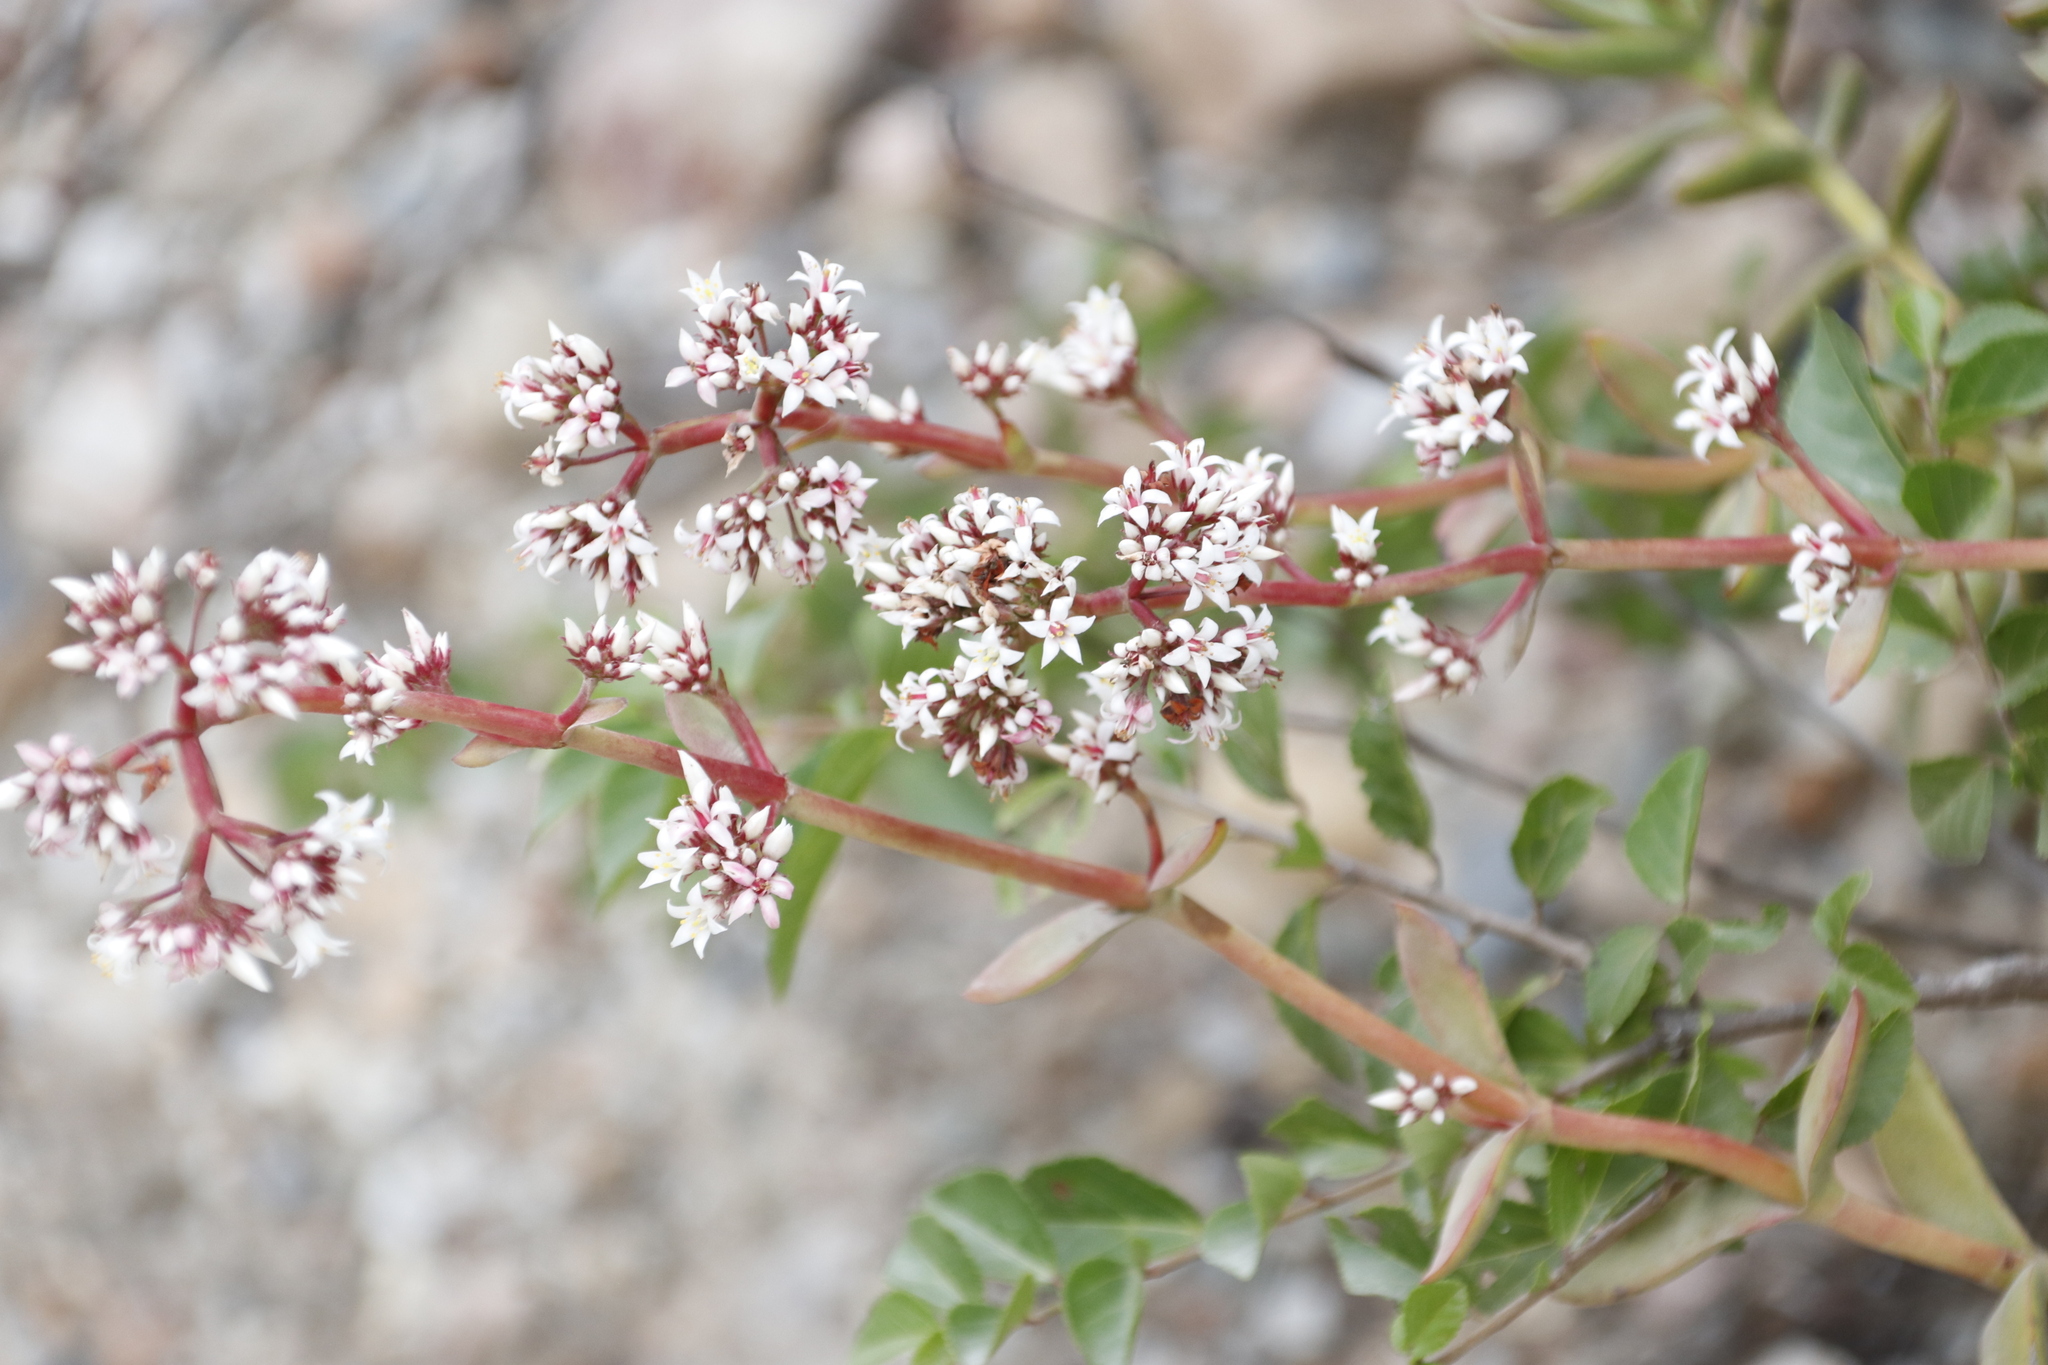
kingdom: Plantae
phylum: Tracheophyta
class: Magnoliopsida
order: Saxifragales
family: Crassulaceae
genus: Crassula
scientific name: Crassula rubricaulis
